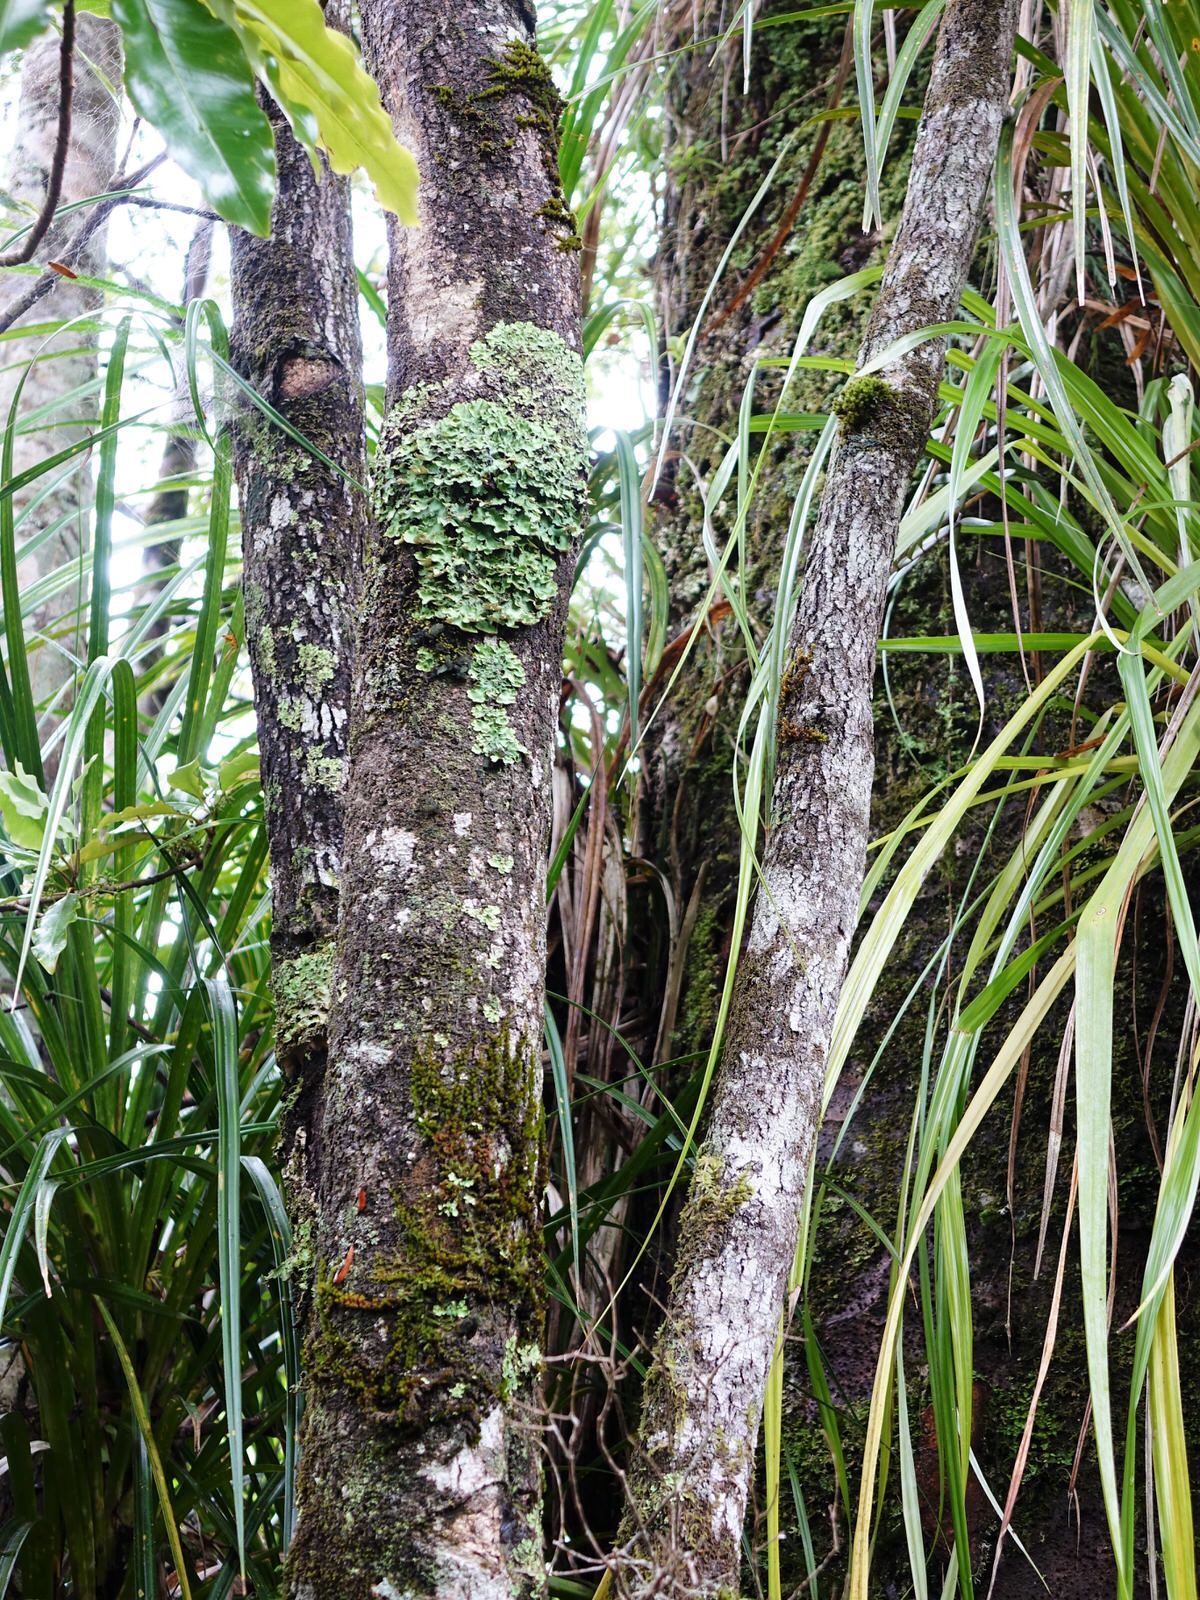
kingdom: Plantae
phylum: Tracheophyta
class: Magnoliopsida
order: Lamiales
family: Oleaceae
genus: Nestegis
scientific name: Nestegis montana
